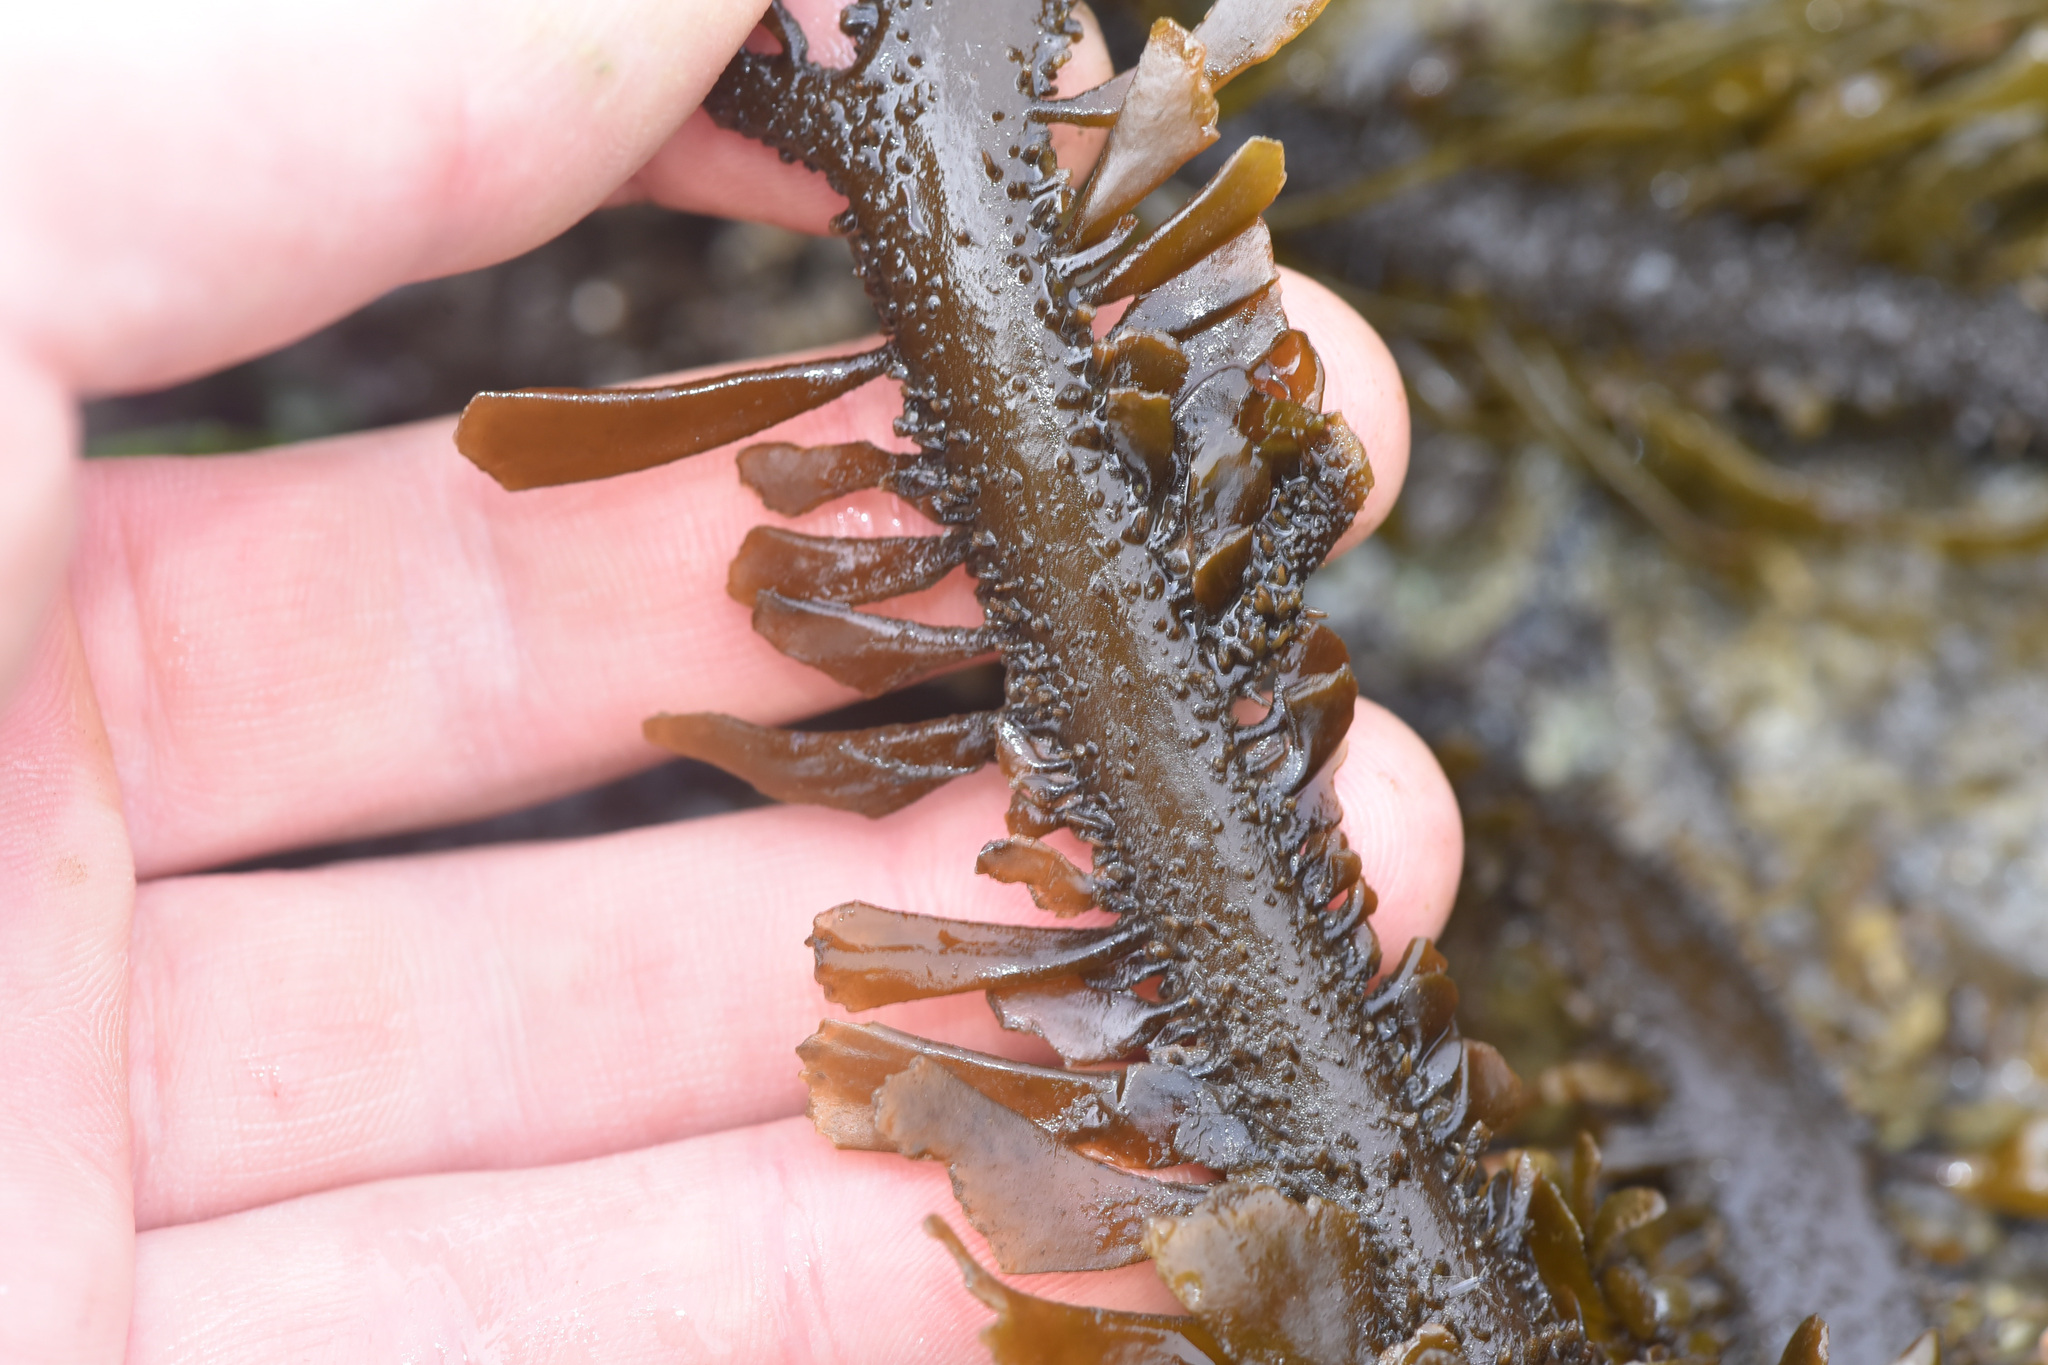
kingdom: Chromista
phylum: Ochrophyta
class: Phaeophyceae
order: Laminariales
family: Lessoniaceae
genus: Egregia
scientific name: Egregia menziesii
